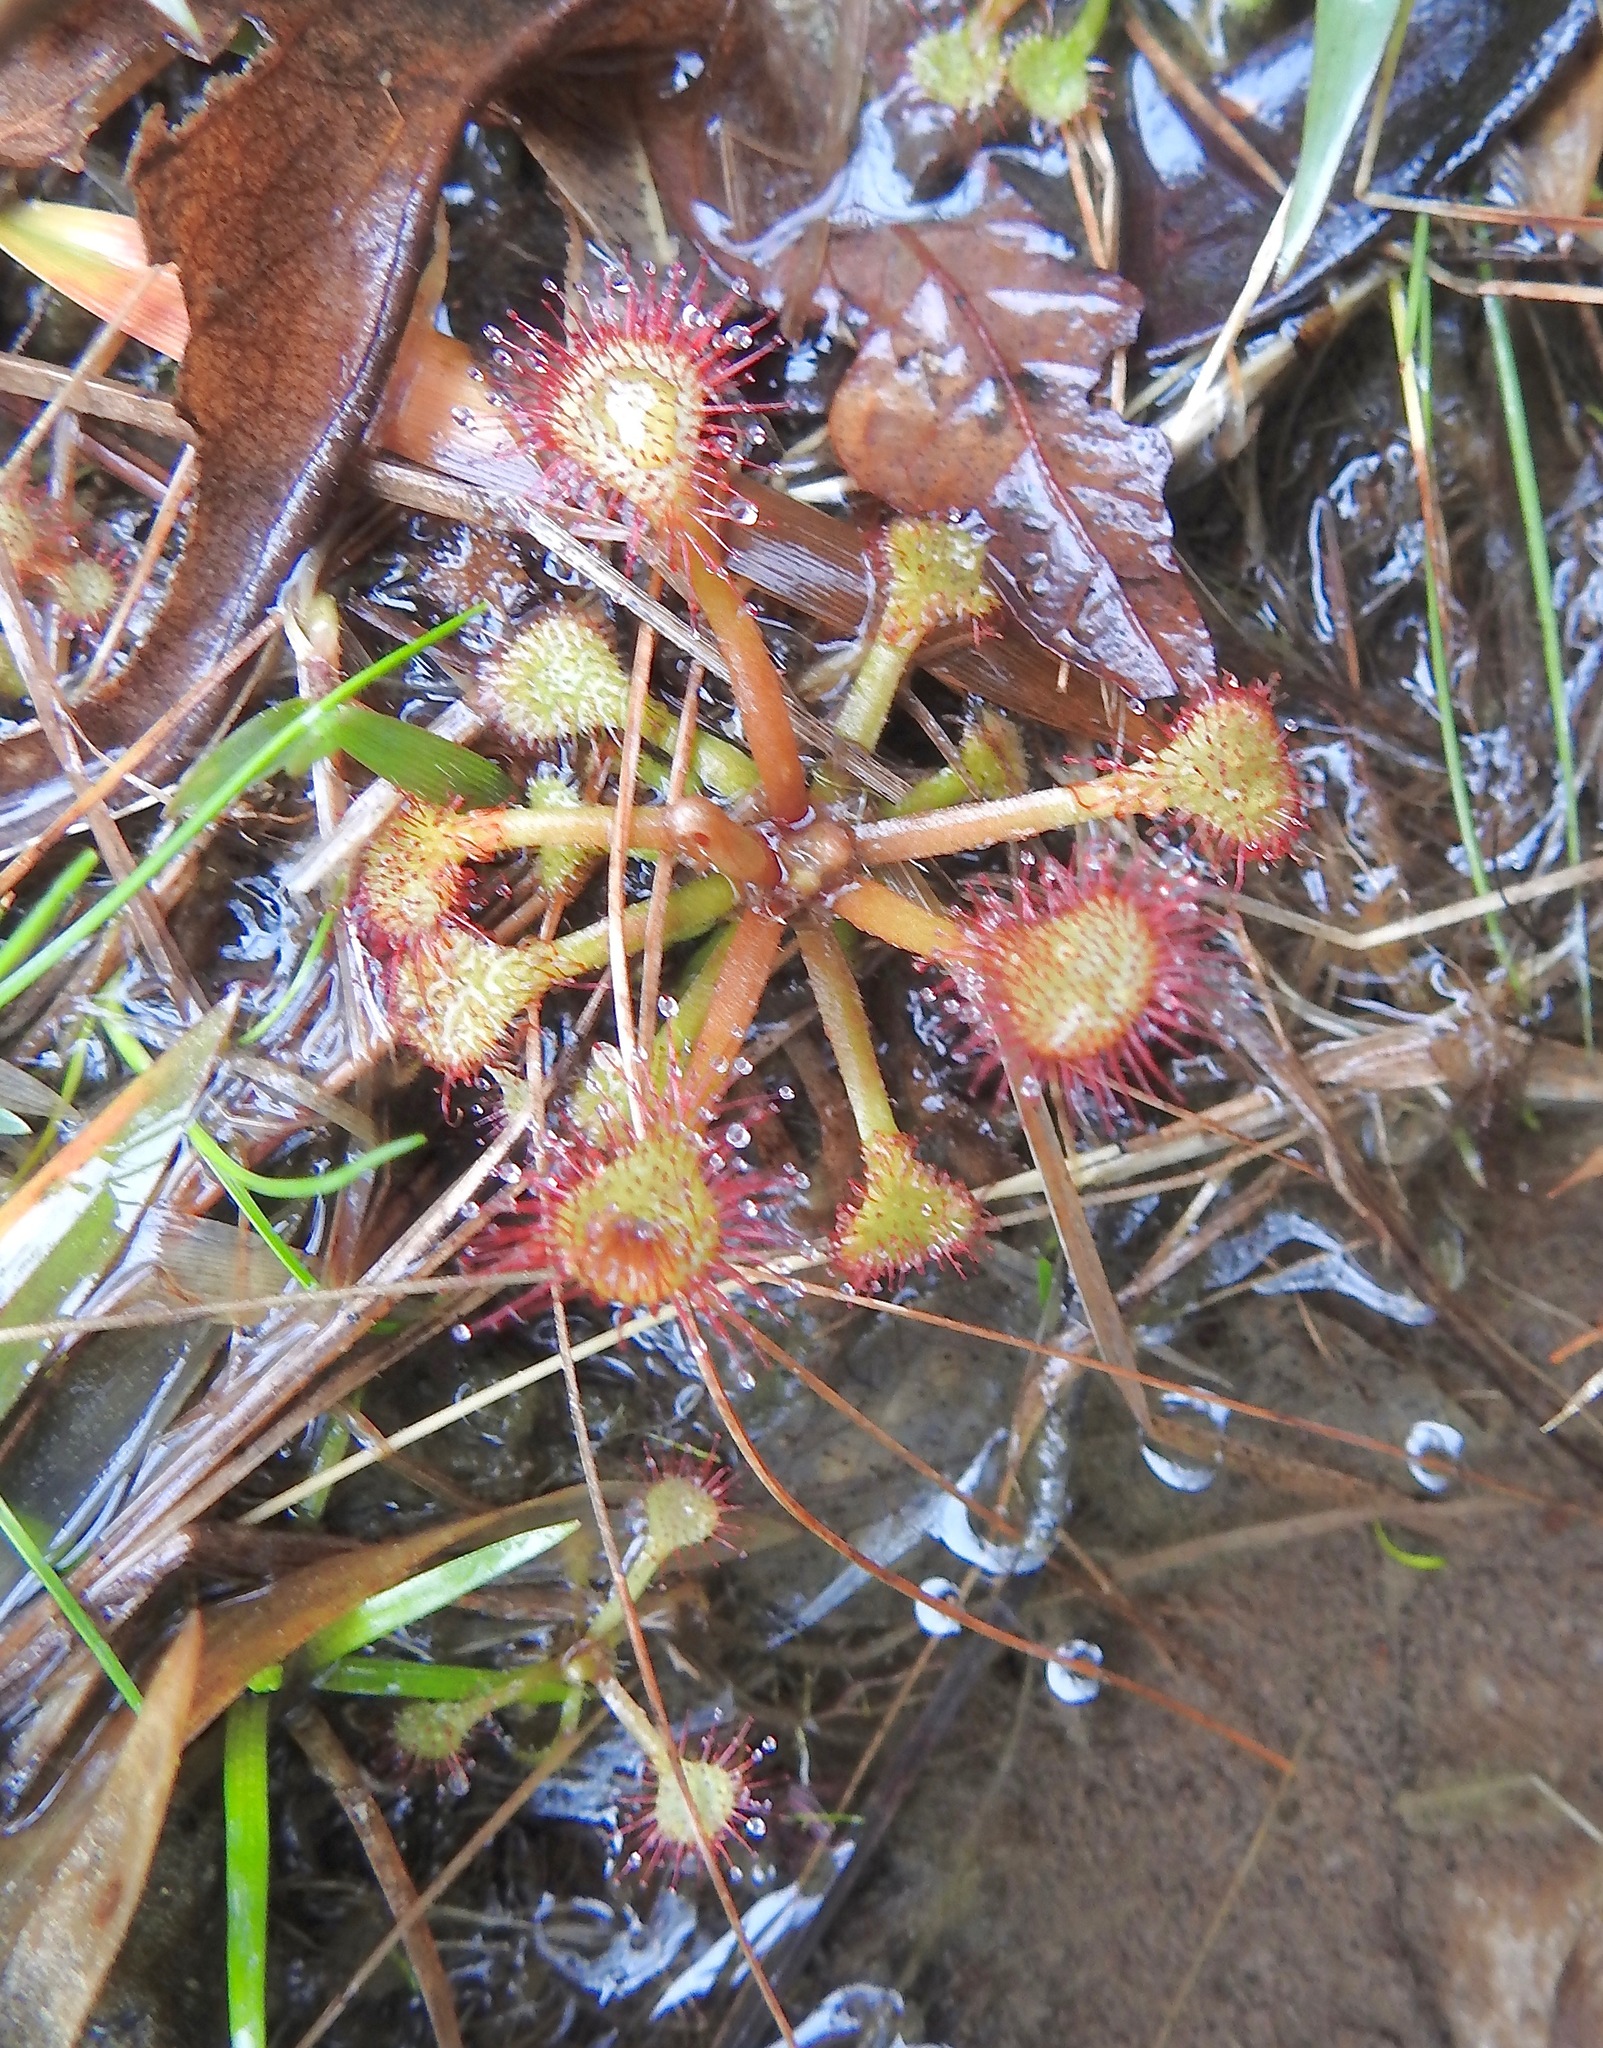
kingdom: Plantae
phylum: Tracheophyta
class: Magnoliopsida
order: Caryophyllales
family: Droseraceae
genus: Drosera
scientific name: Drosera capillaris
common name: Pink sundew
